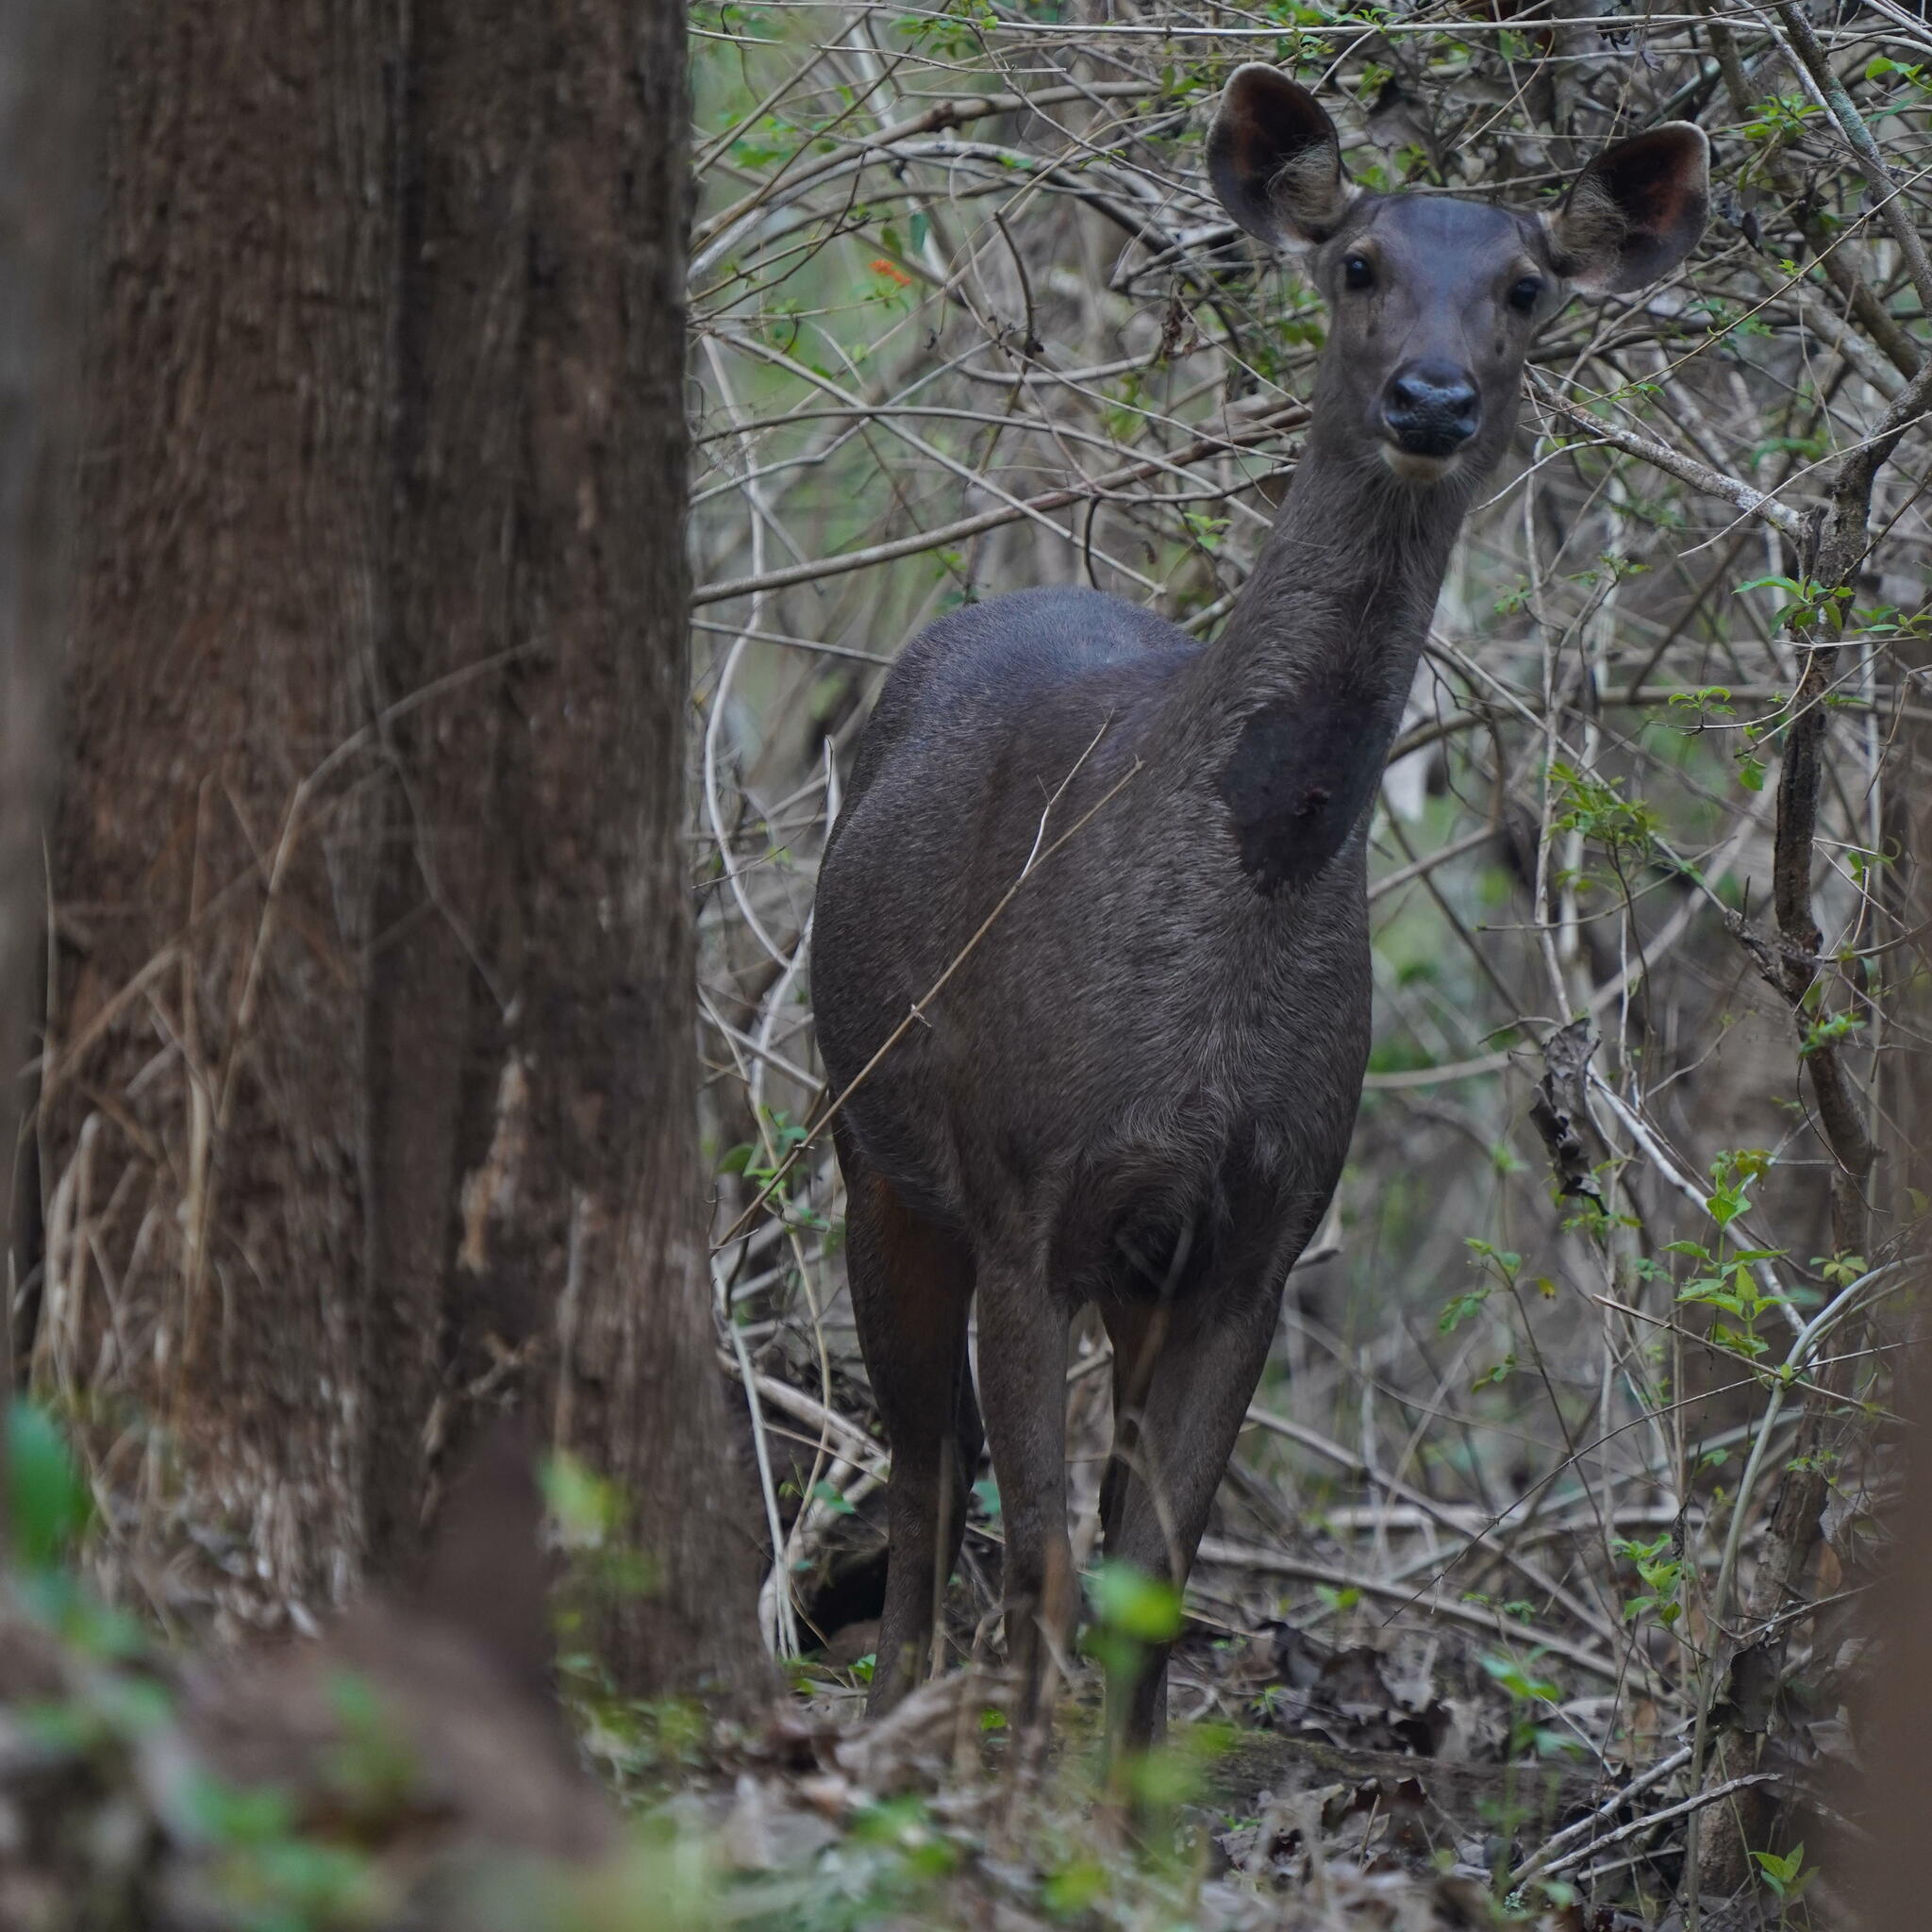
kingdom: Animalia
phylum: Chordata
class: Mammalia
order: Artiodactyla
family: Cervidae
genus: Rusa
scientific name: Rusa unicolor
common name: Sambar
